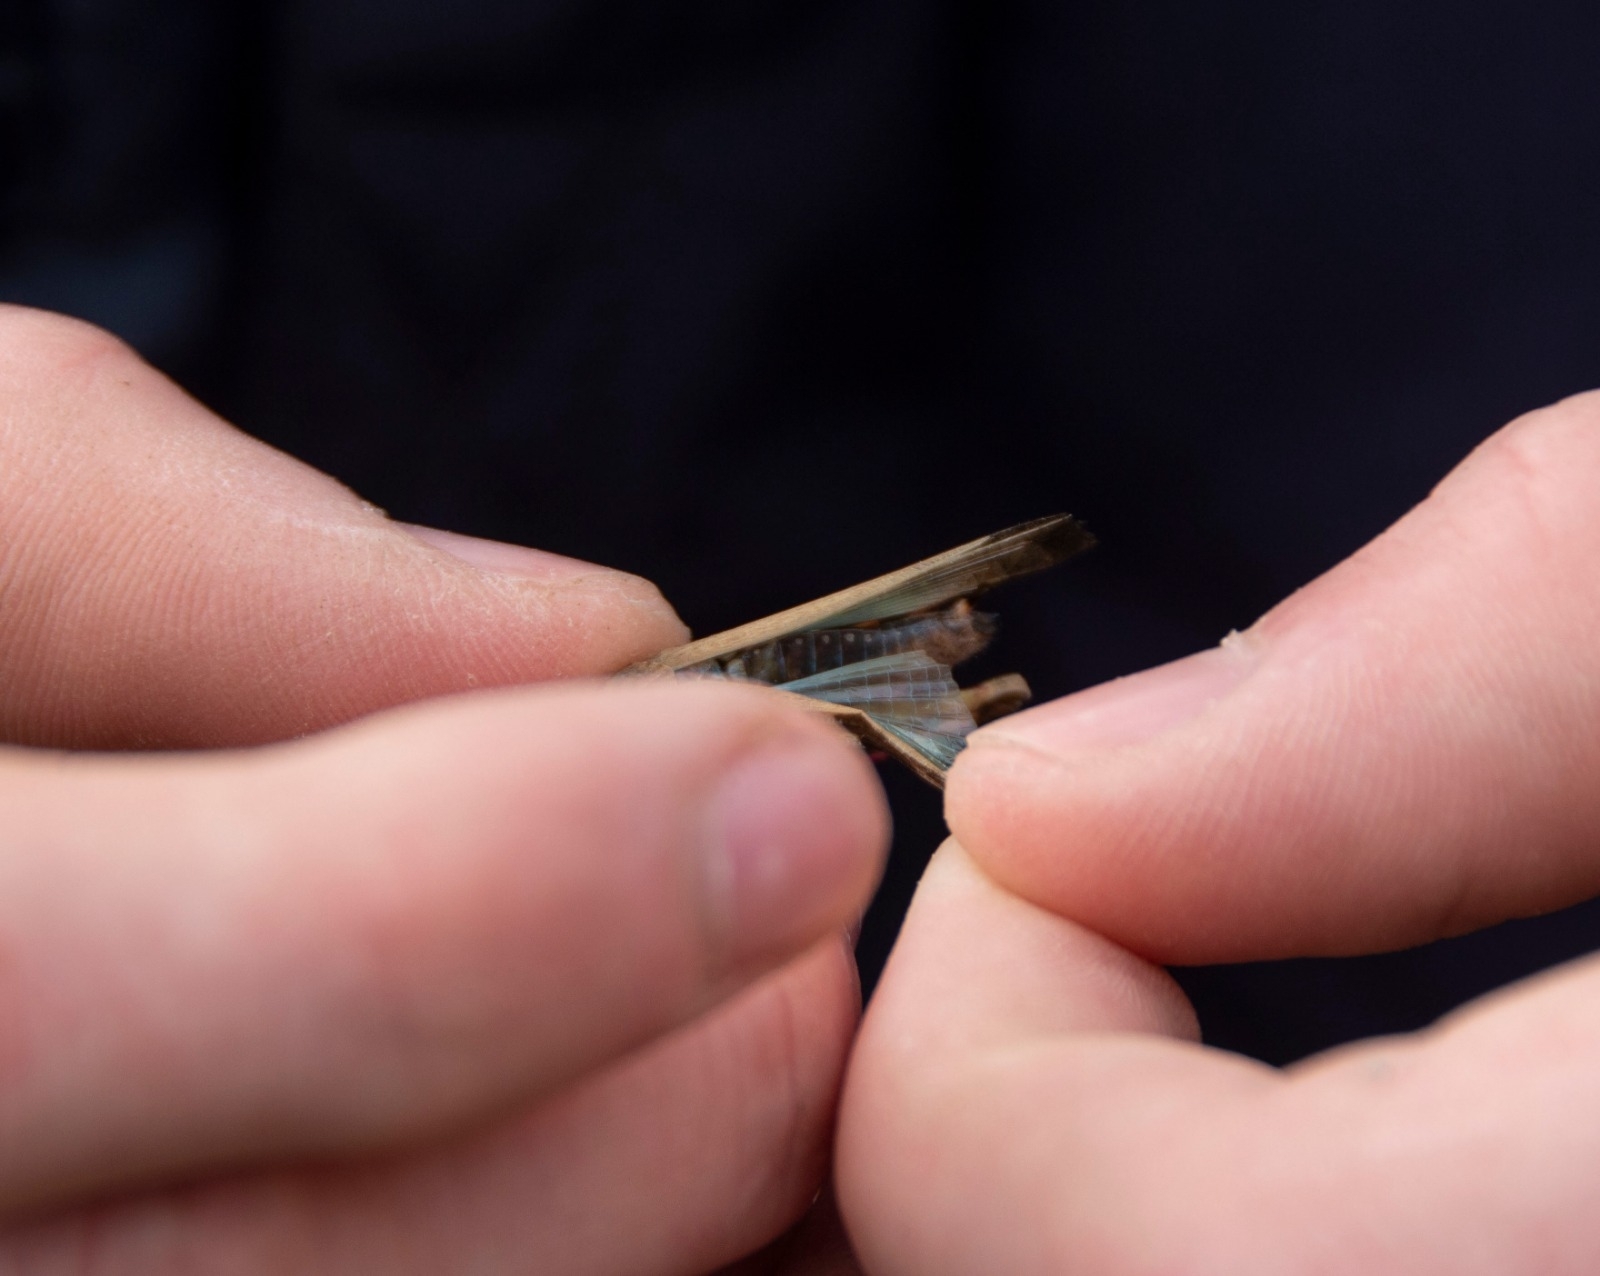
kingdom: Animalia
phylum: Arthropoda
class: Insecta
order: Orthoptera
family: Acrididae
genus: Aiolopus
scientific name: Aiolopus strepens
